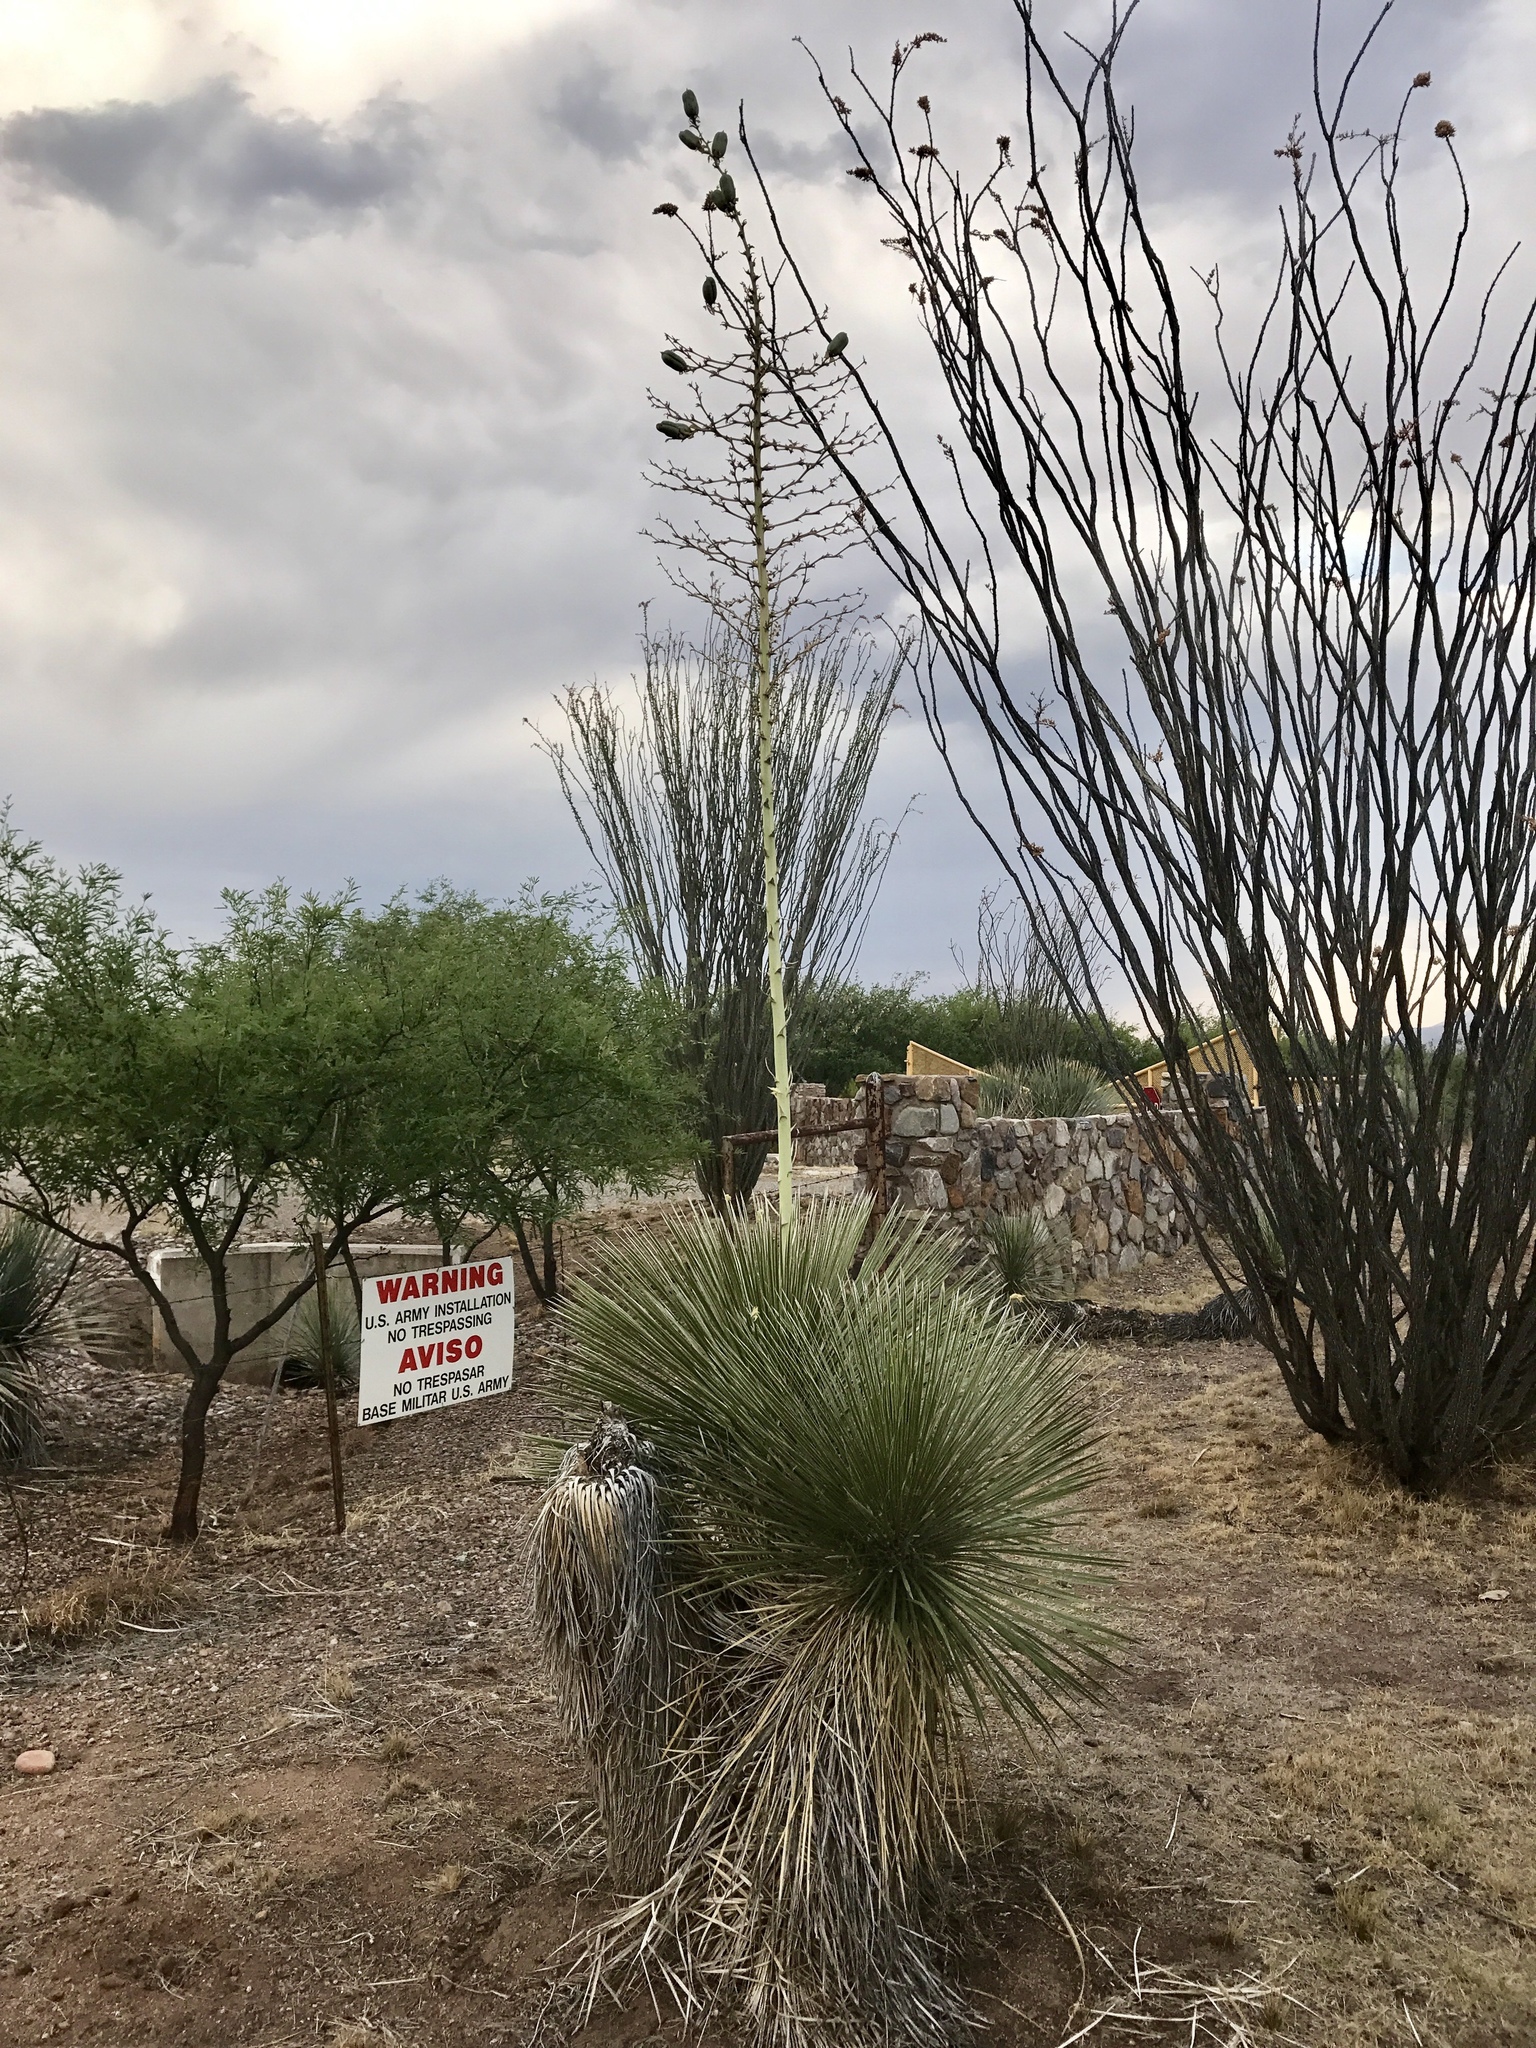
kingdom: Plantae
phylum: Tracheophyta
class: Liliopsida
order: Asparagales
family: Asparagaceae
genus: Yucca
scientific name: Yucca elata
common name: Palmella
